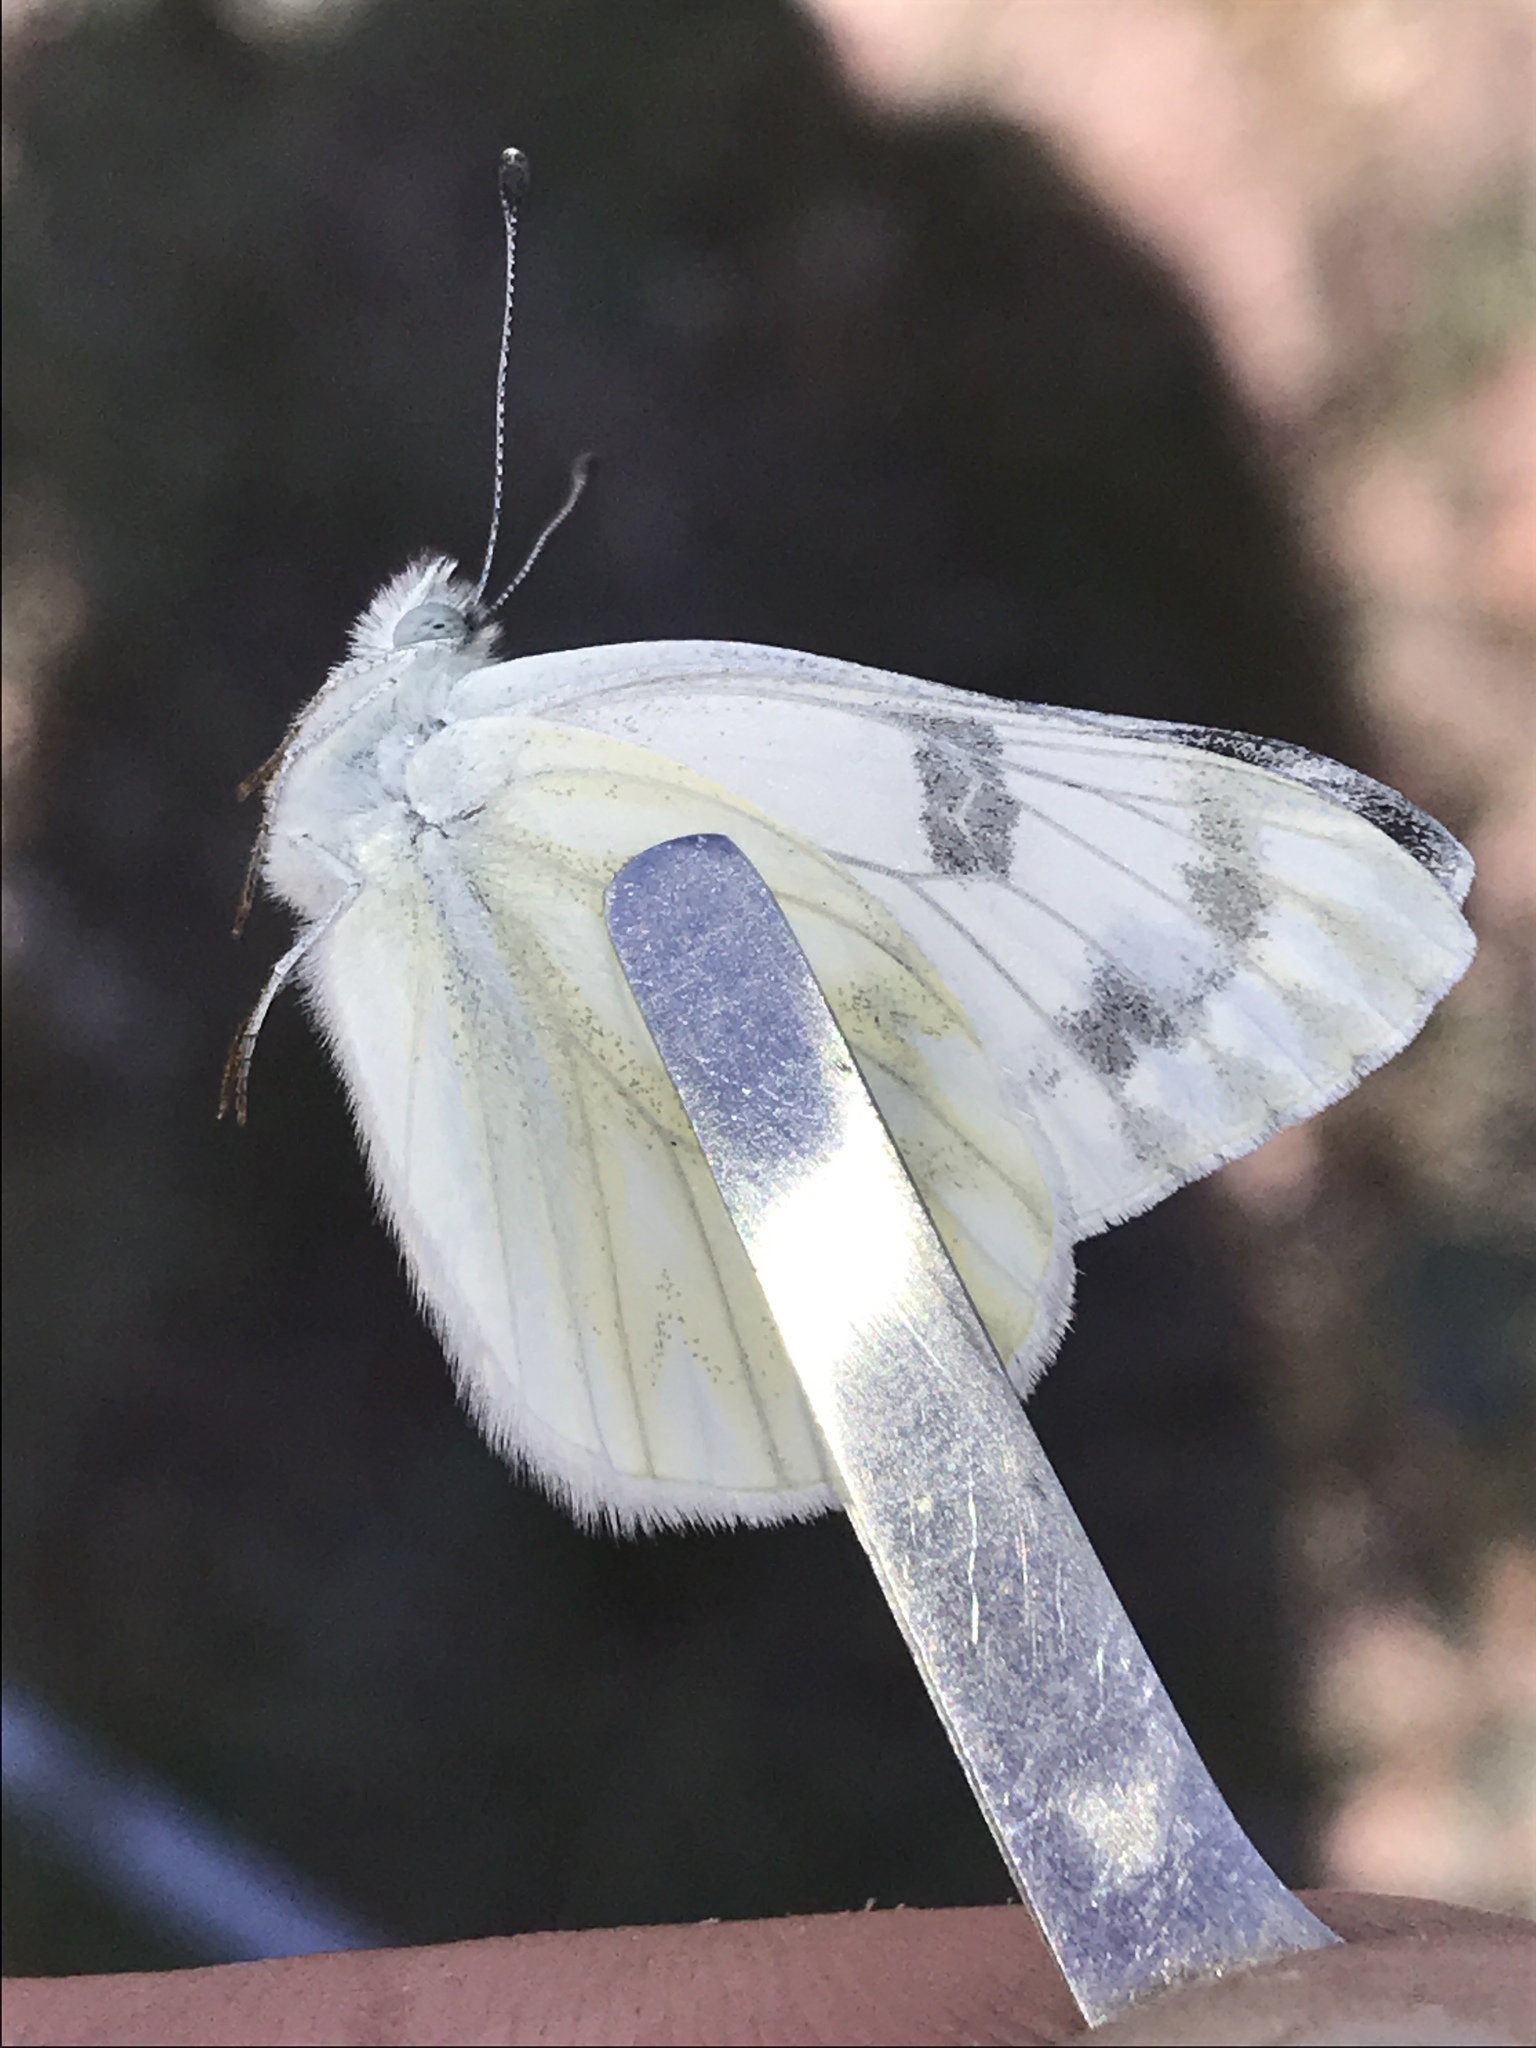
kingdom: Animalia
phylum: Arthropoda
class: Insecta
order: Lepidoptera
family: Pieridae
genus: Pontia
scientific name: Pontia protodice
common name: Checkered white
